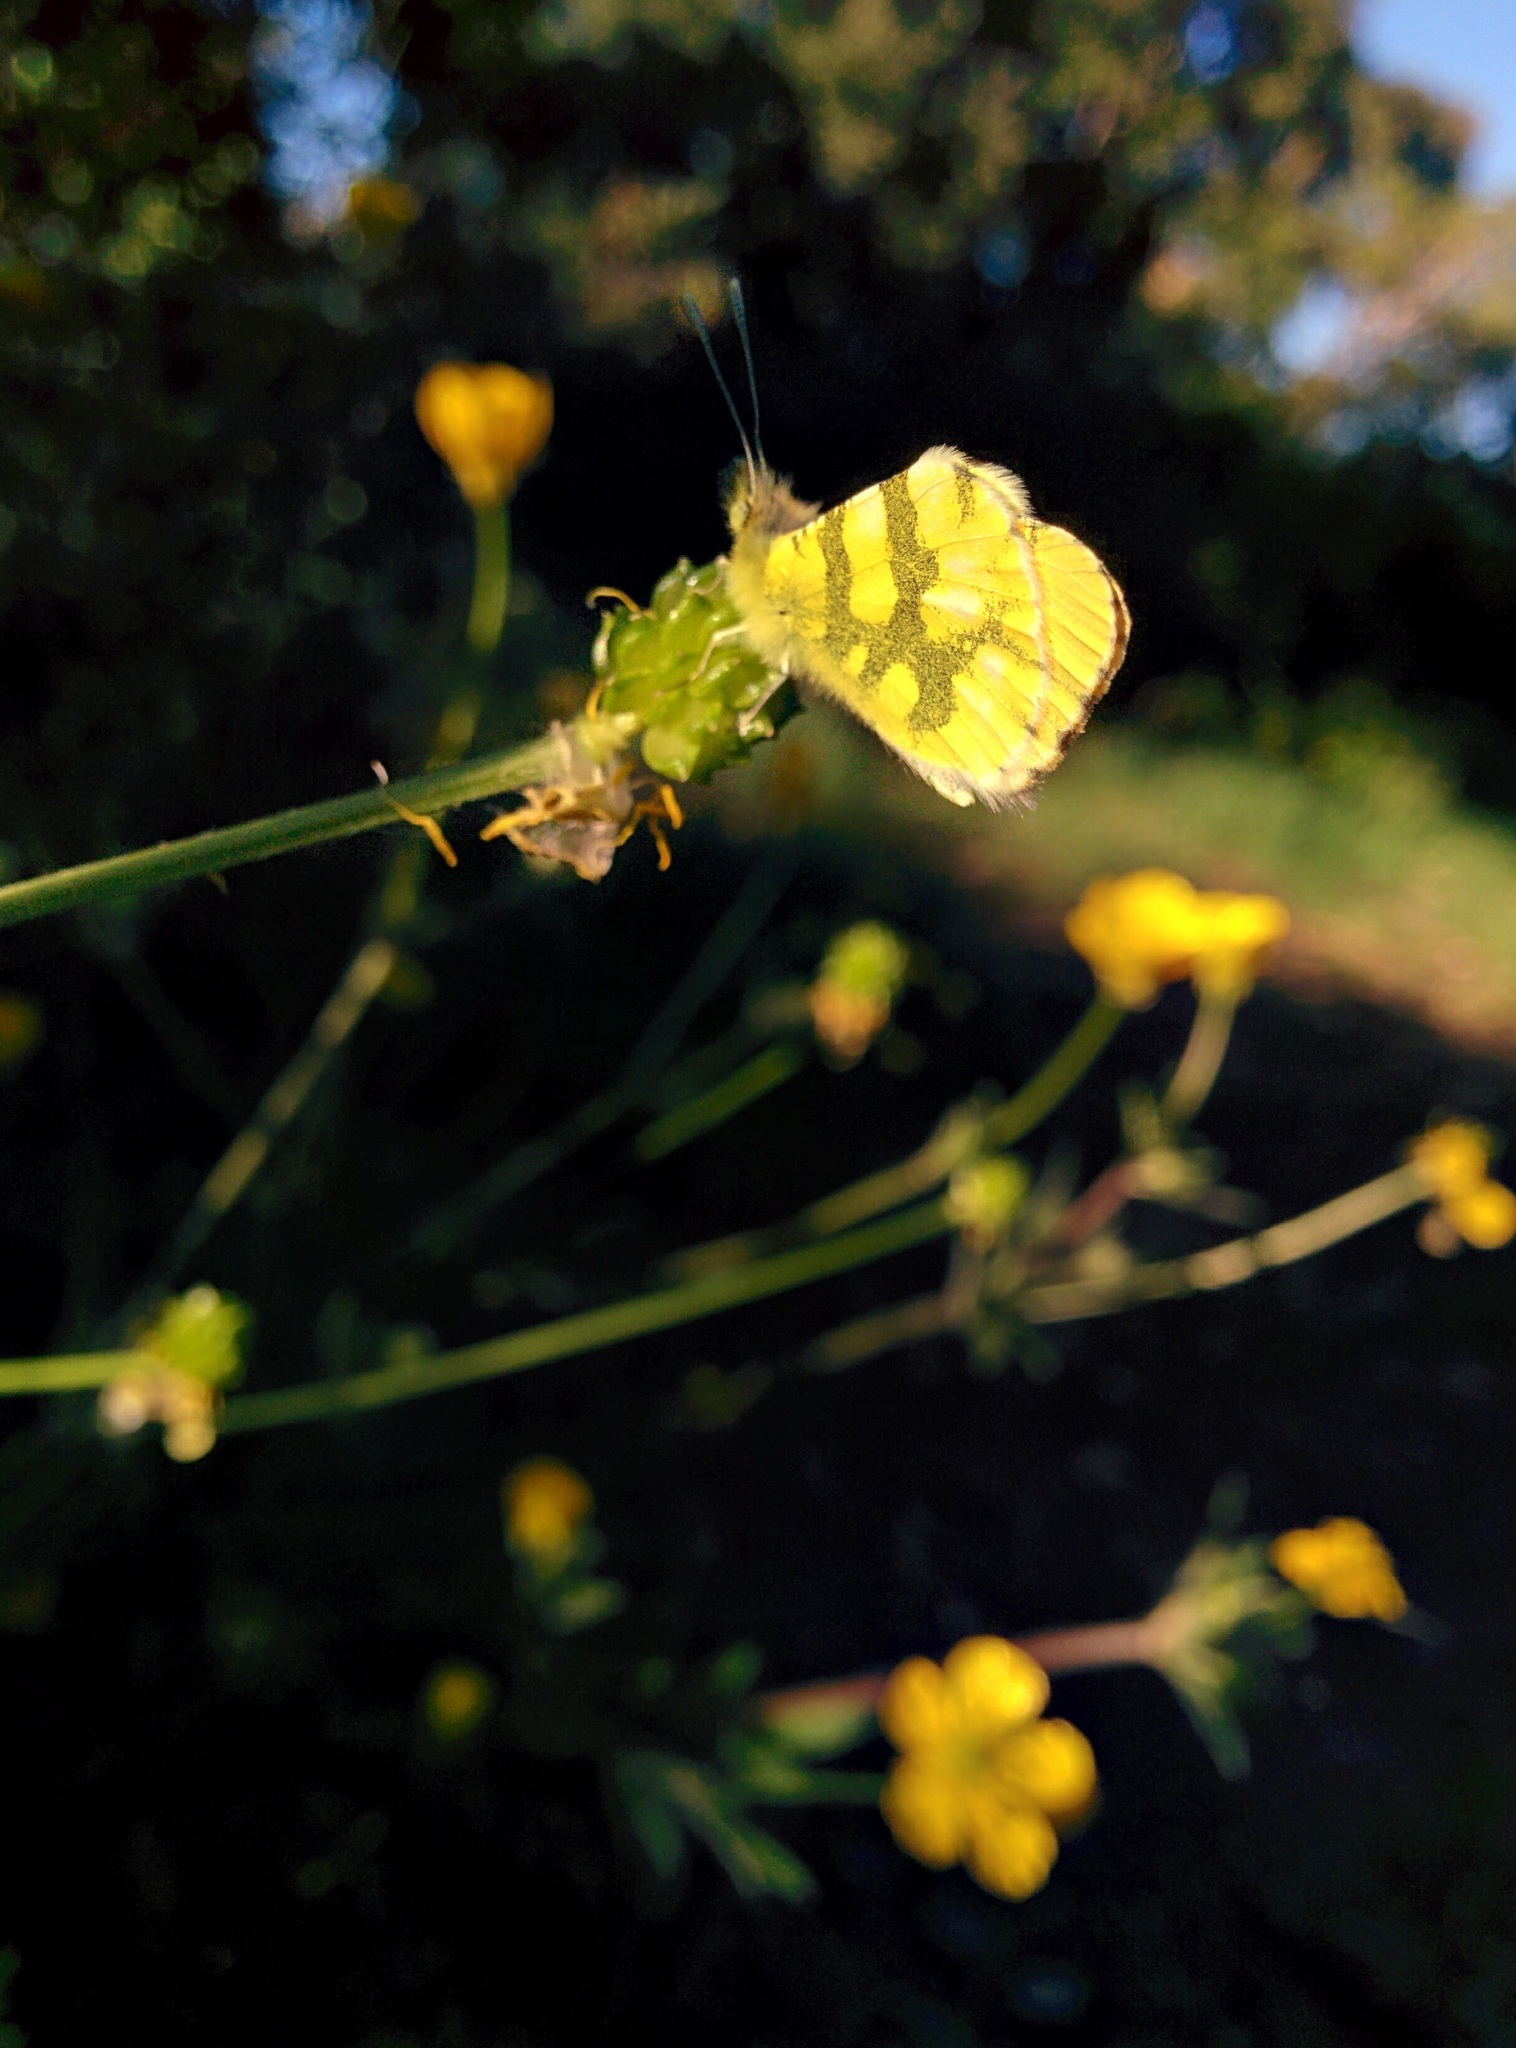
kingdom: Animalia
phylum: Arthropoda
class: Insecta
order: Lepidoptera
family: Pieridae
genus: Anthocharis
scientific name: Anthocharis euphenoides
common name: Provence orange-tip
